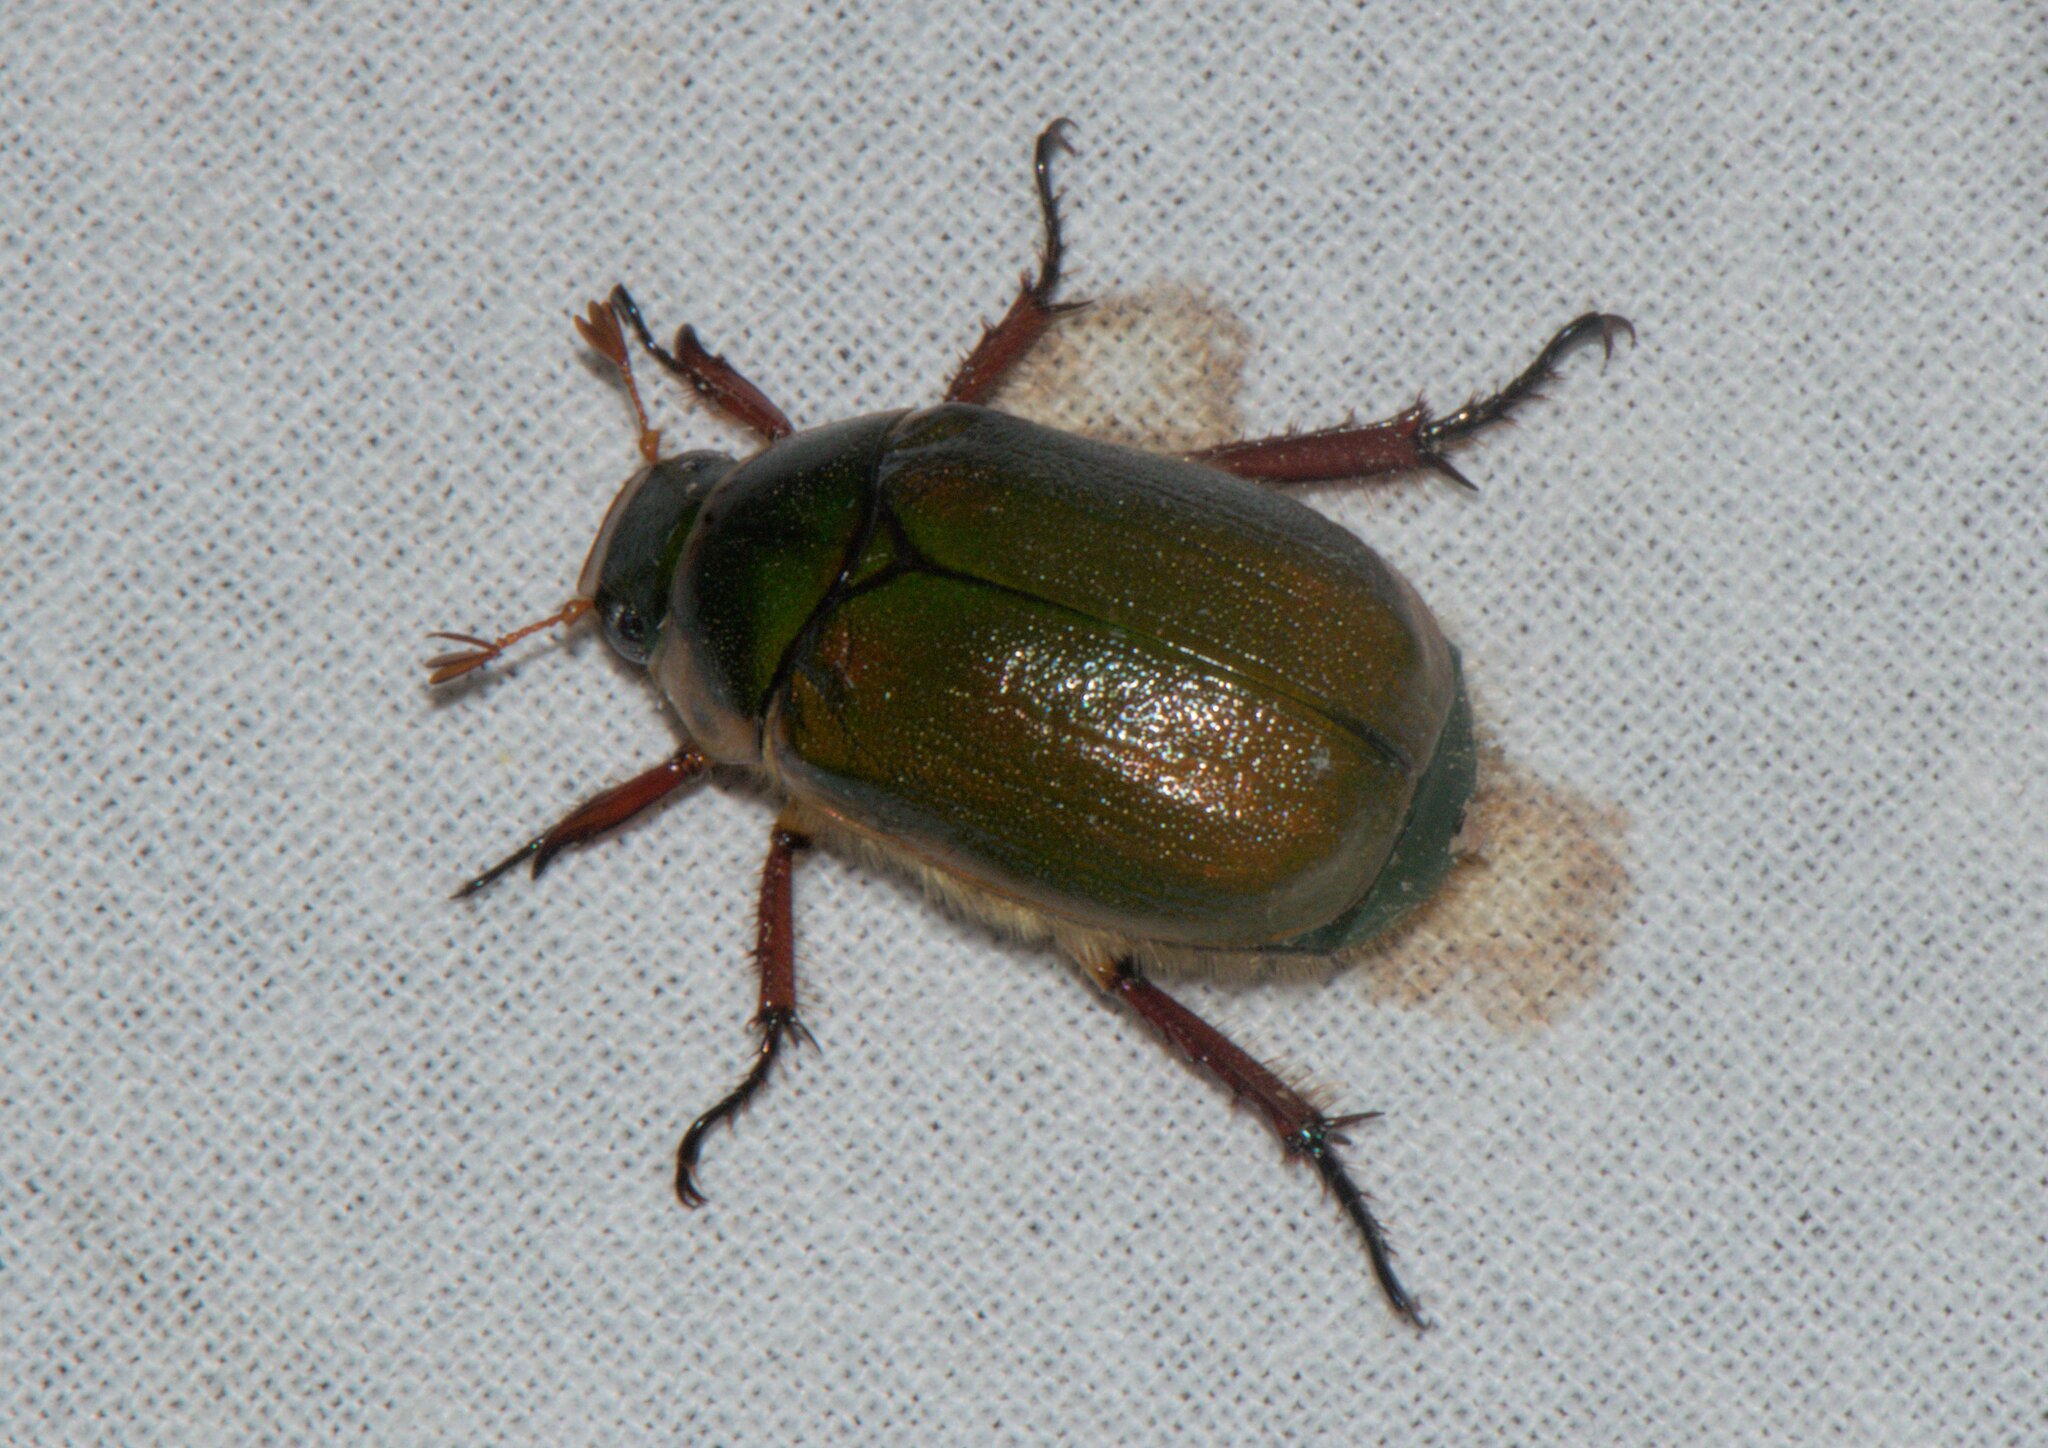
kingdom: Animalia
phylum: Arthropoda
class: Insecta
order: Coleoptera
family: Scarabaeidae
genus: Mimela
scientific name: Mimela passerinii
